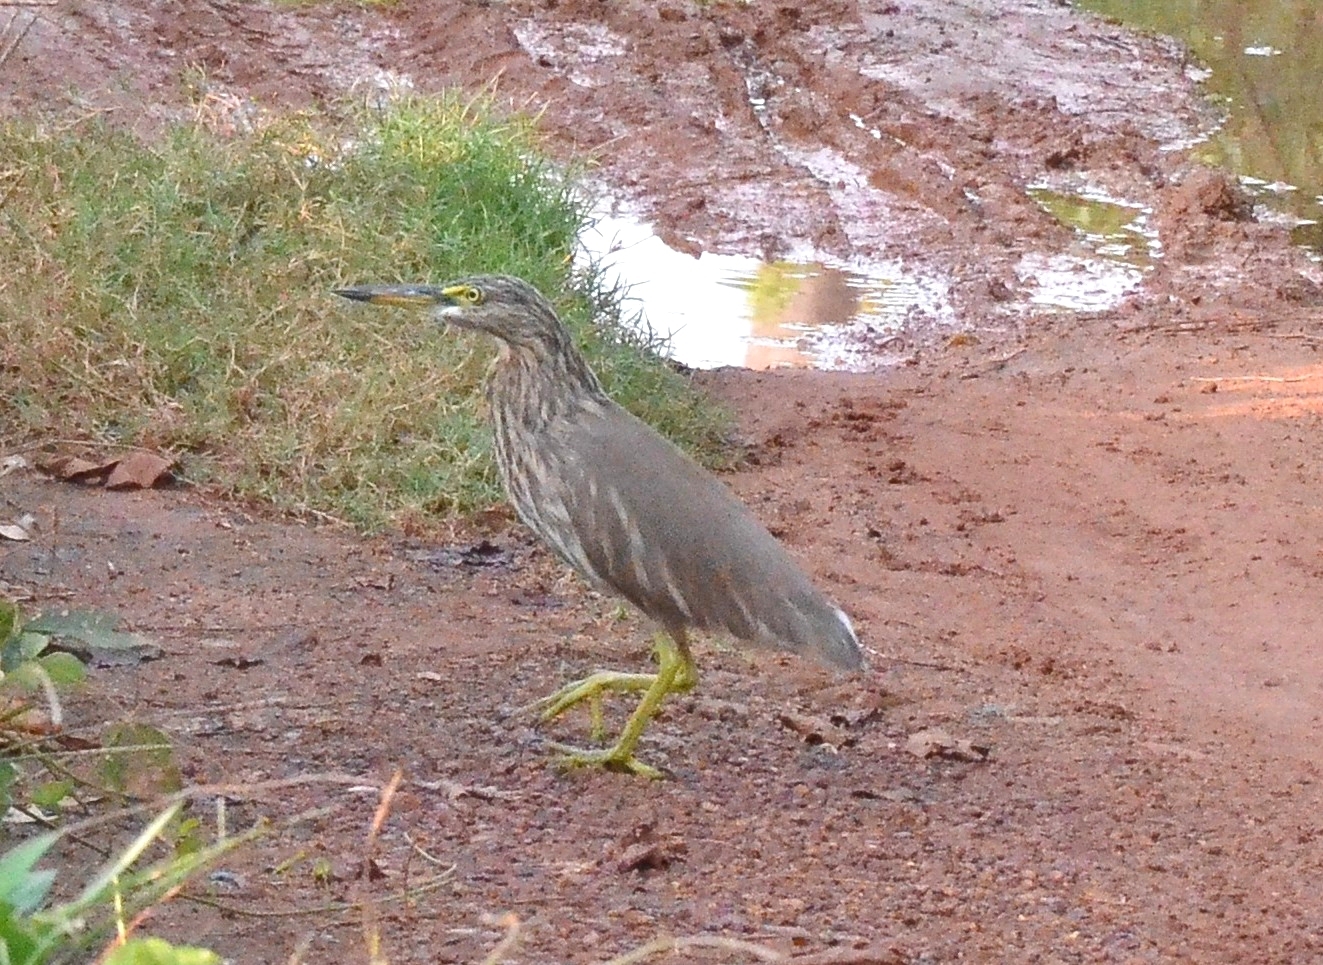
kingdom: Animalia
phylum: Chordata
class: Aves
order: Pelecaniformes
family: Ardeidae
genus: Ardeola
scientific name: Ardeola grayii
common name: Indian pond heron
